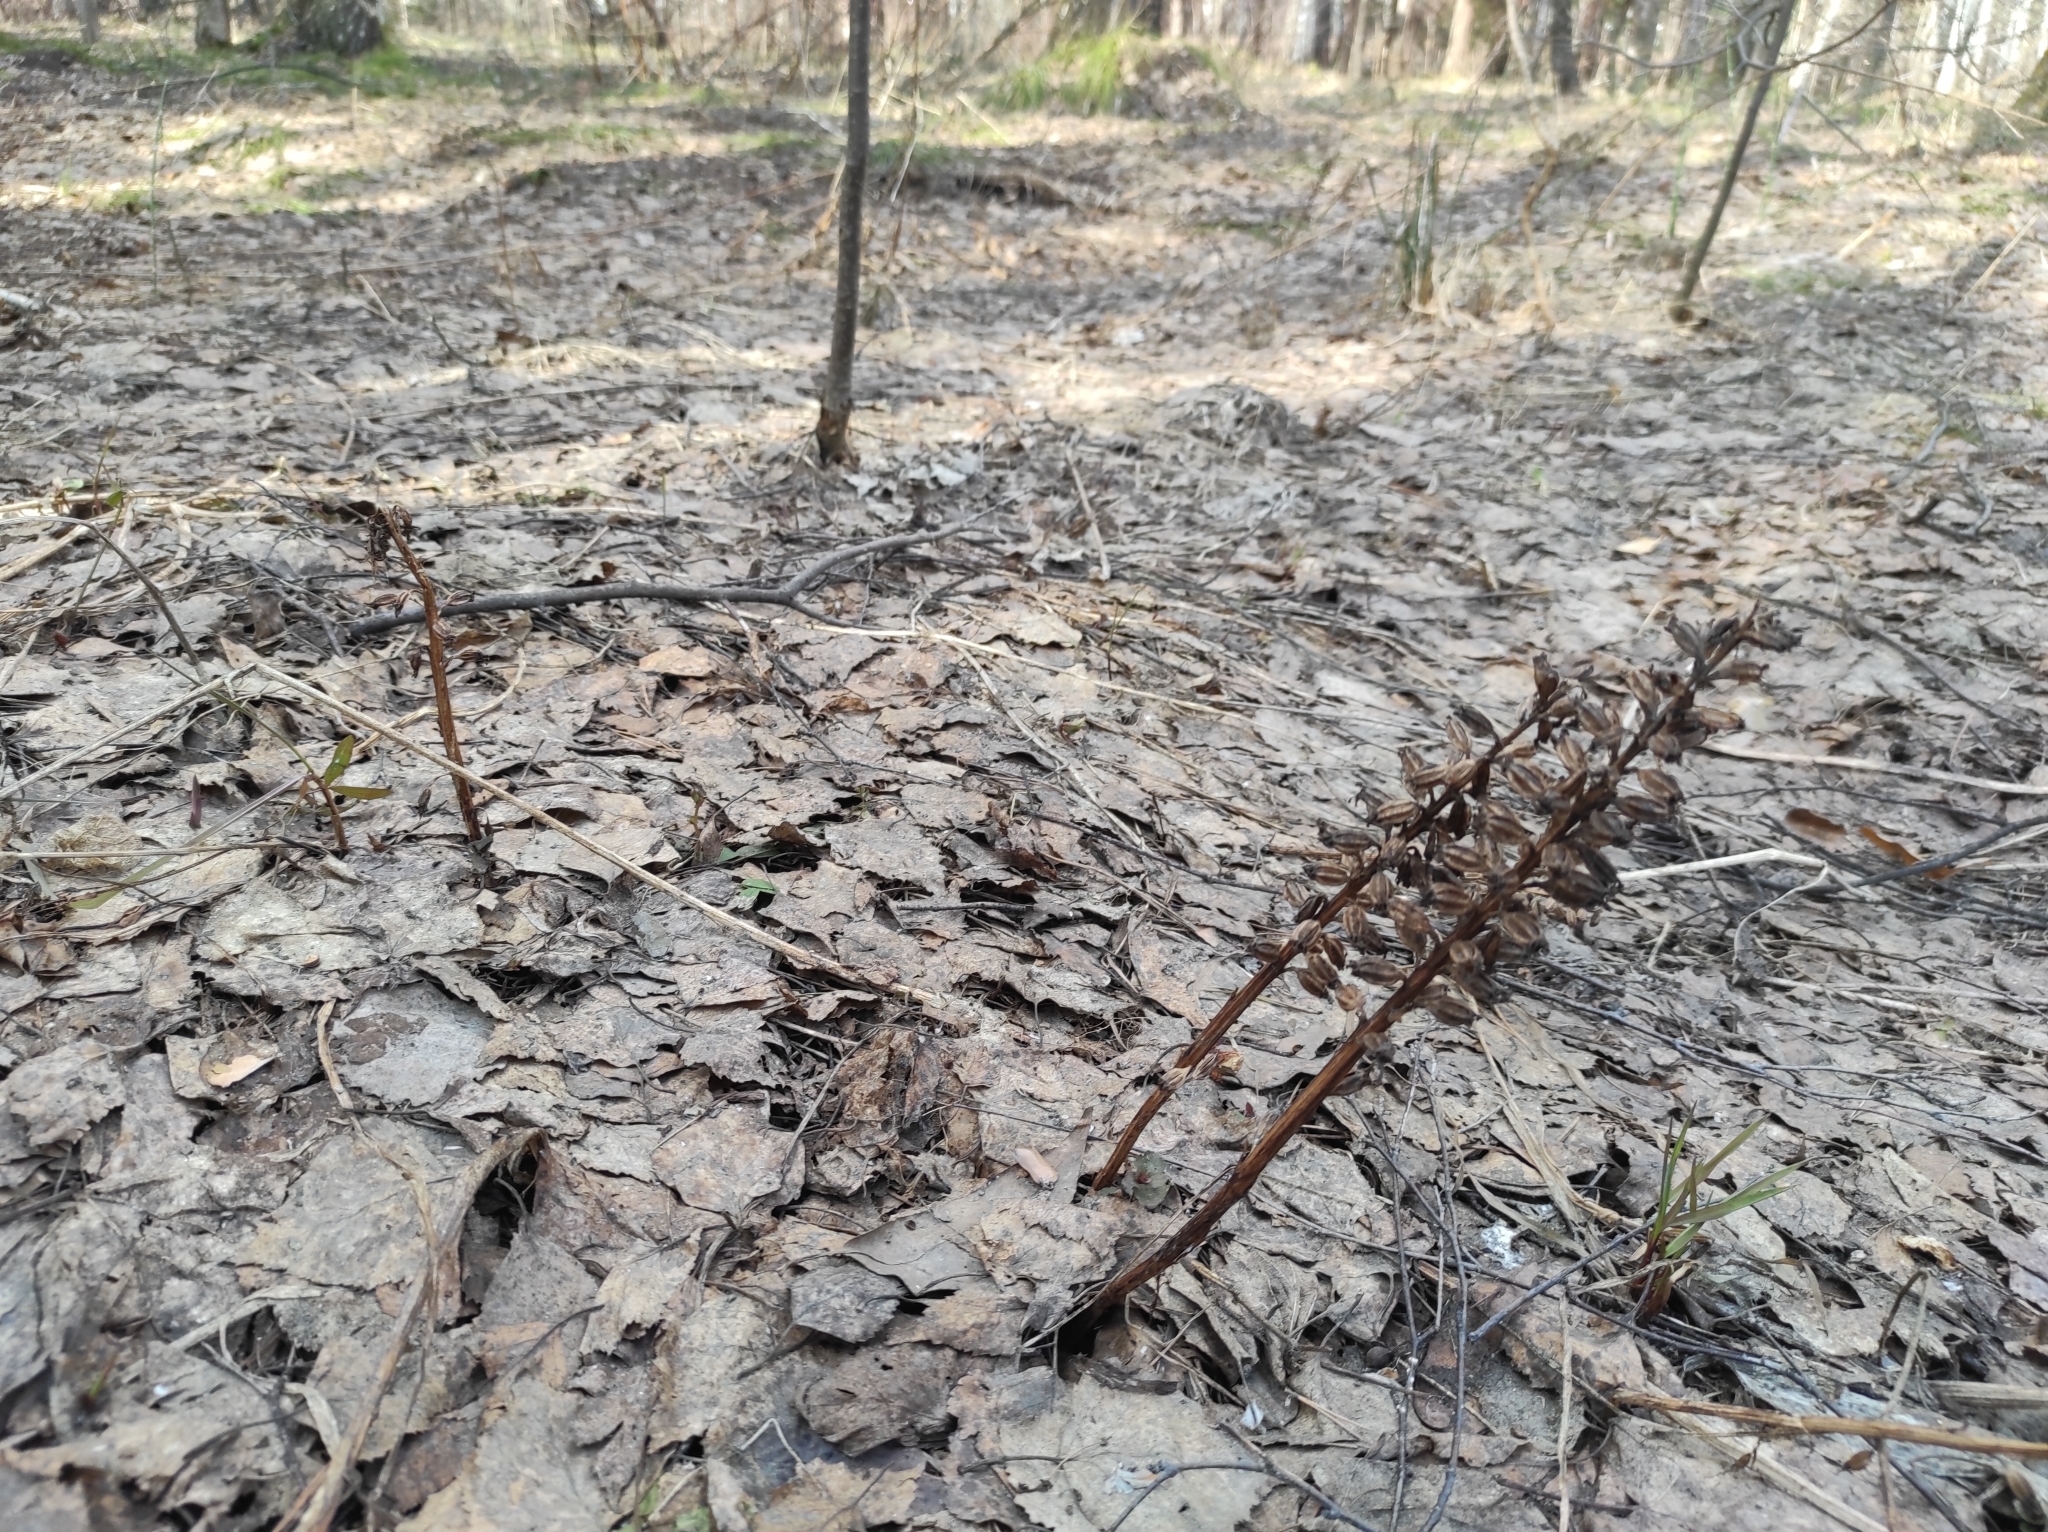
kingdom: Plantae
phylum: Tracheophyta
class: Liliopsida
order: Asparagales
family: Orchidaceae
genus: Neottia
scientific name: Neottia nidus-avis
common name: Bird's-nest orchid
